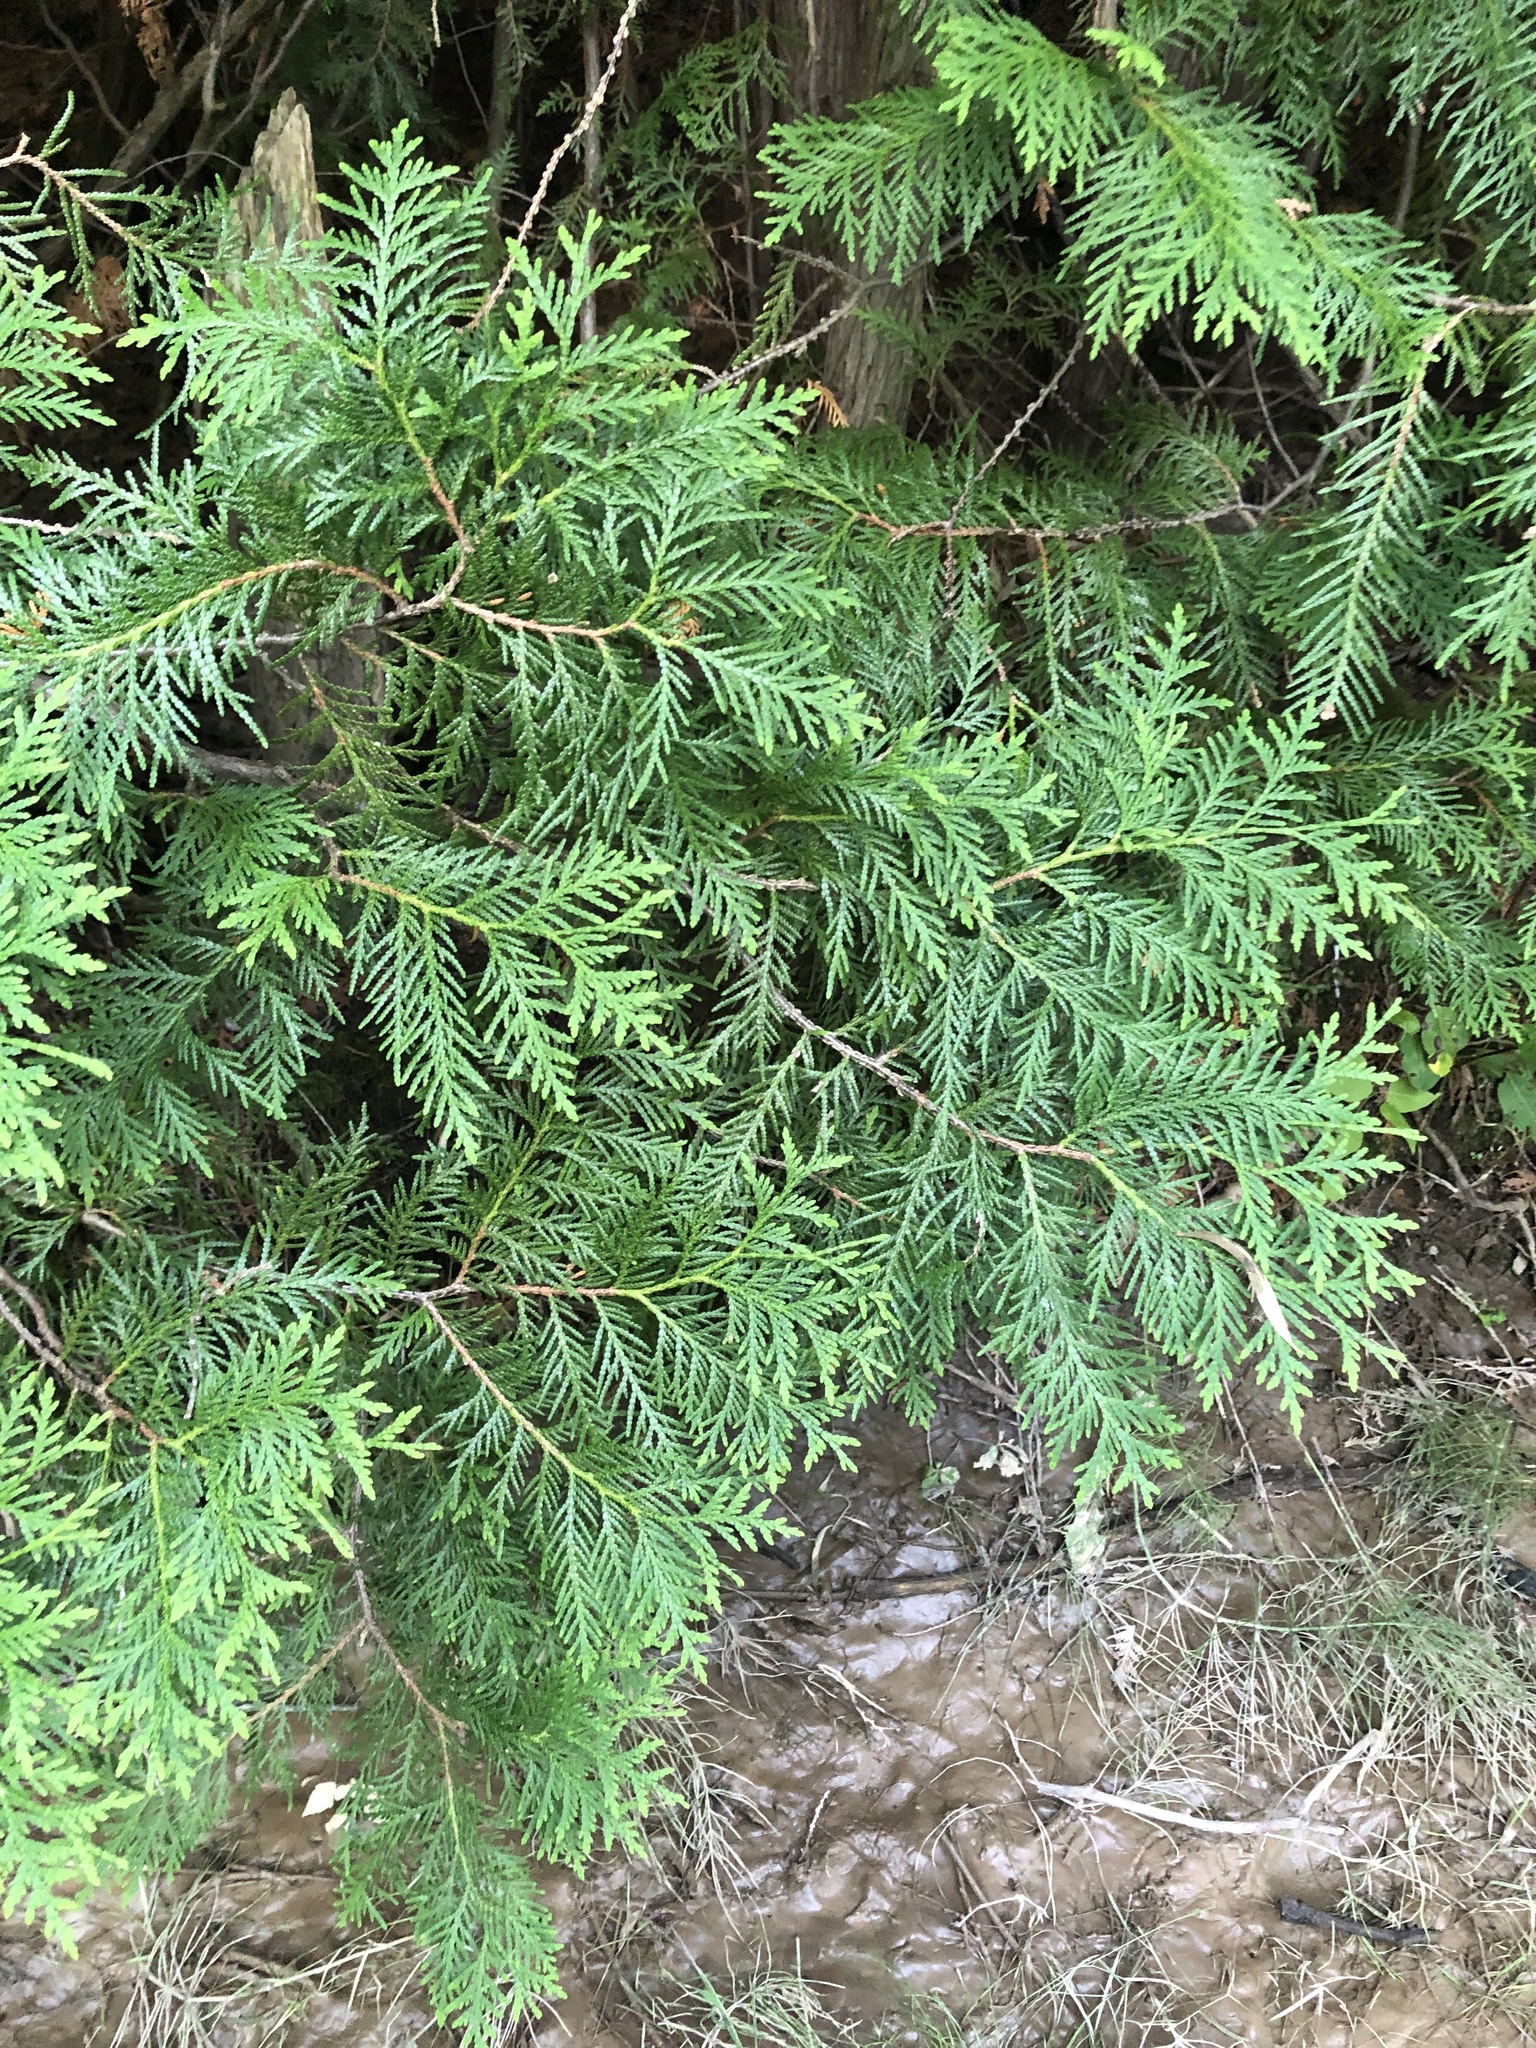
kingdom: Plantae
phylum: Tracheophyta
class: Pinopsida
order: Pinales
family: Cupressaceae
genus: Thuja
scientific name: Thuja occidentalis
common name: Northern white-cedar
